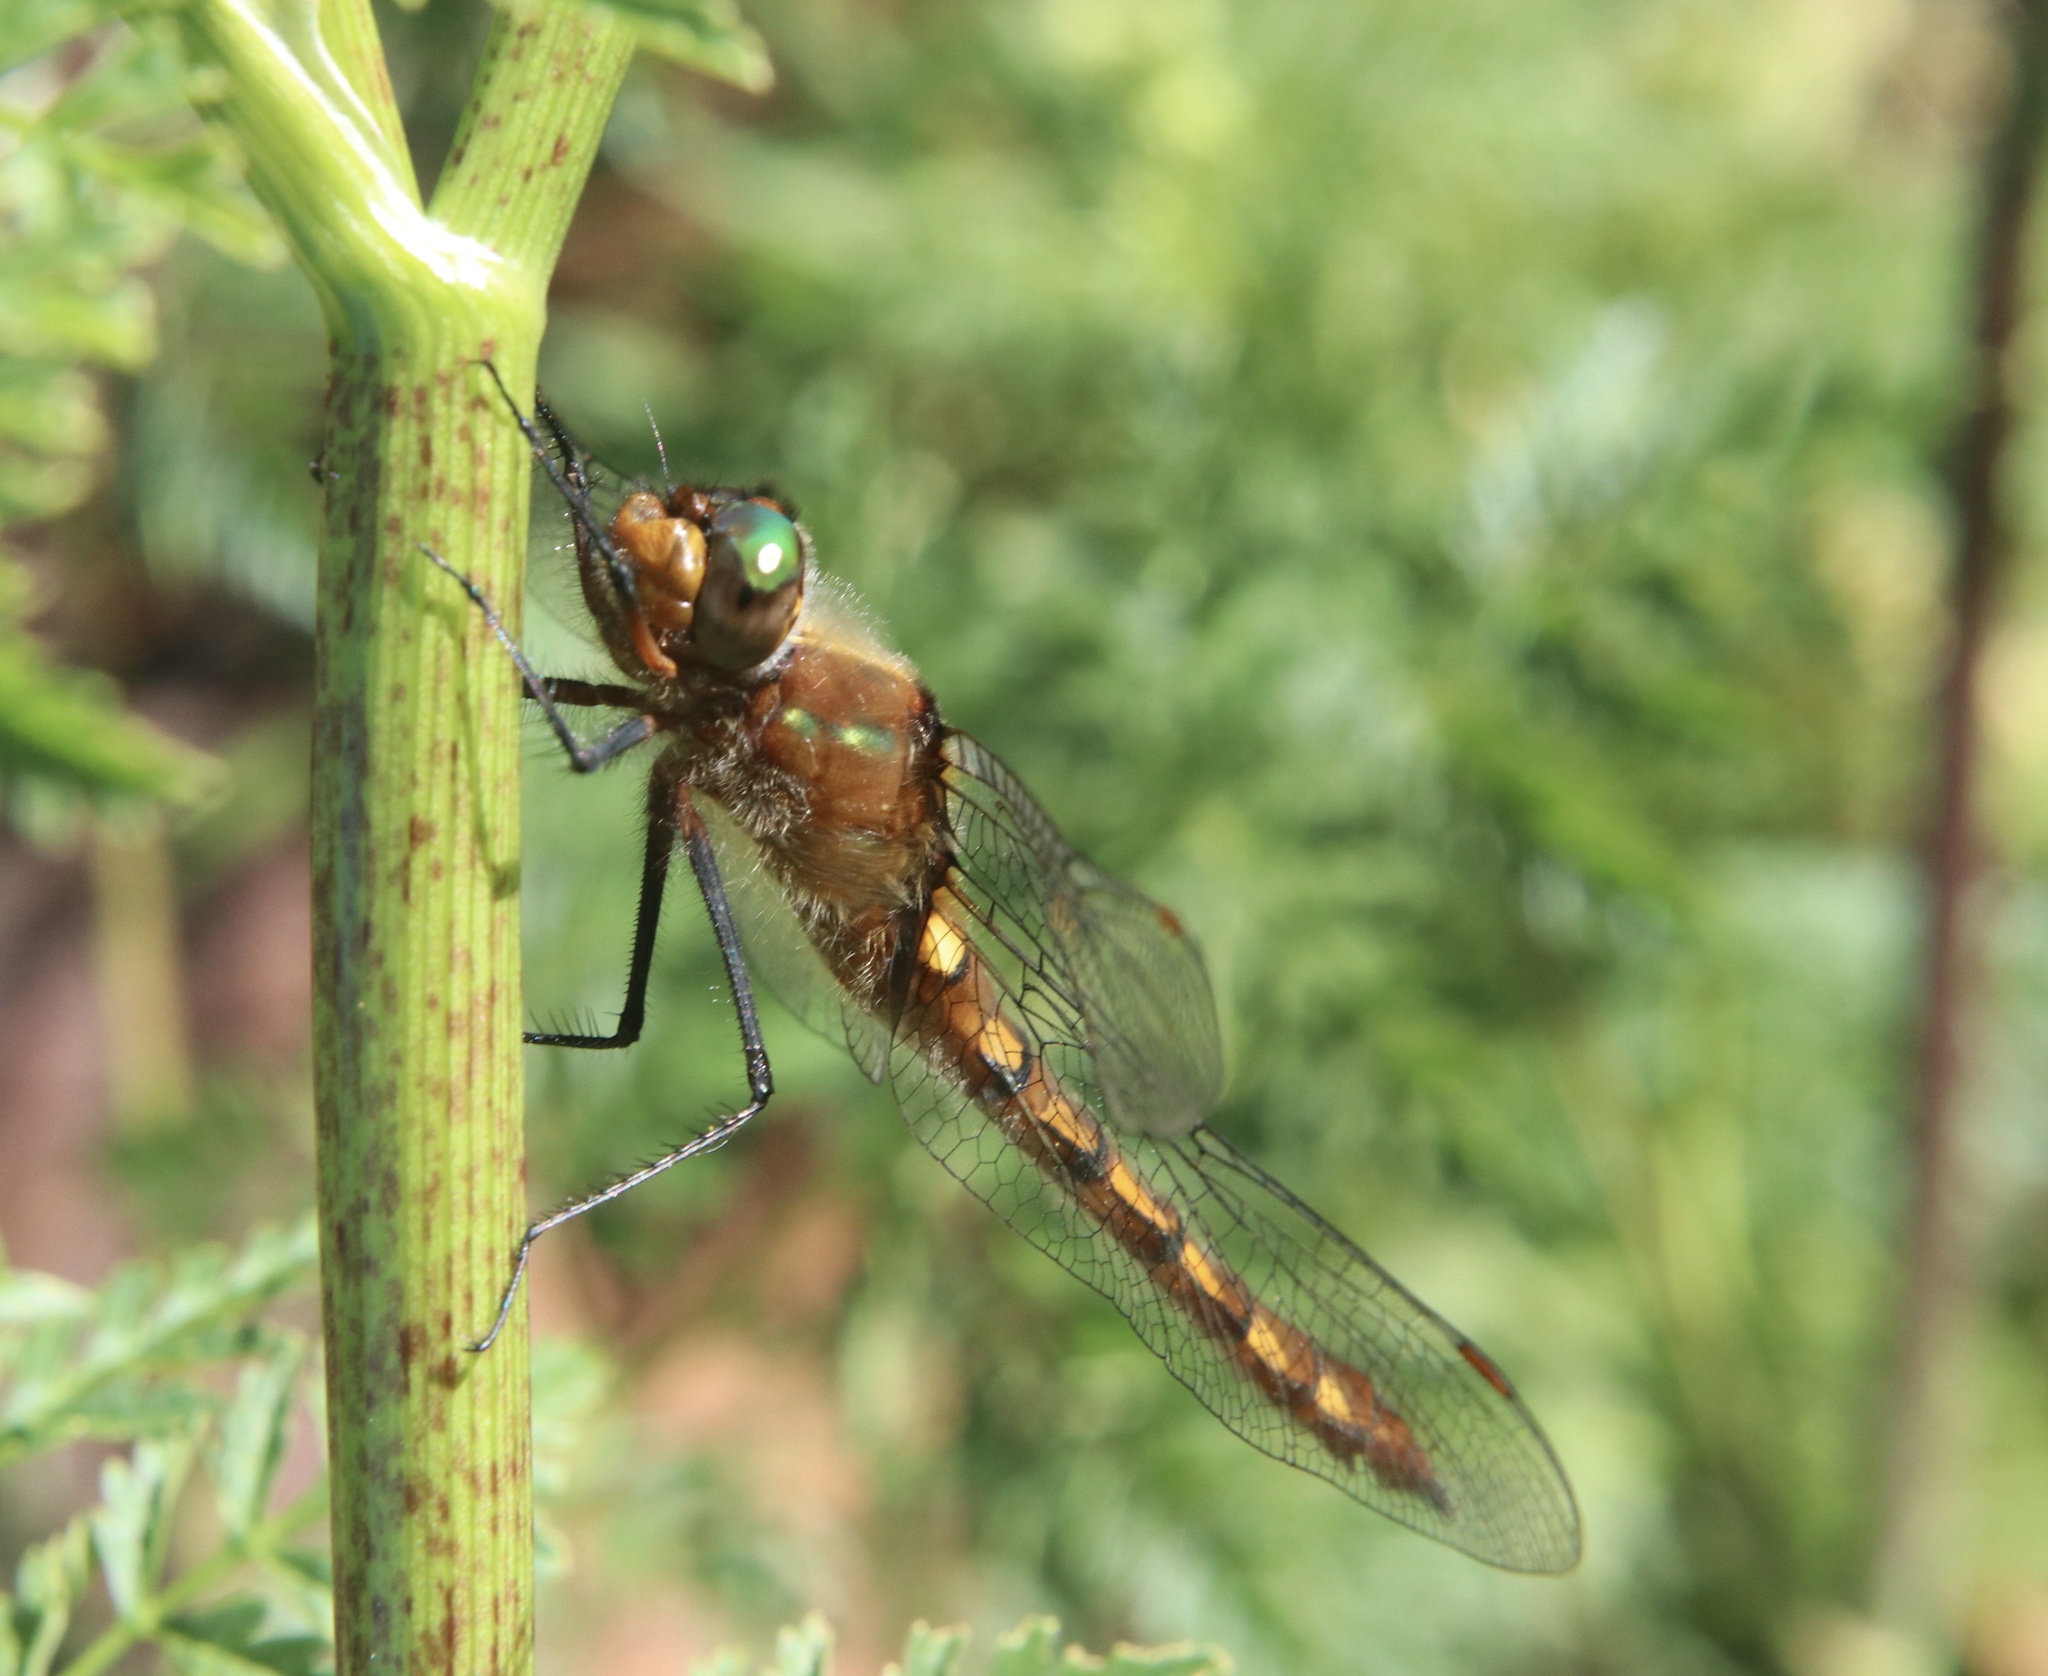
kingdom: Animalia
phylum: Arthropoda
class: Insecta
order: Odonata
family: Corduliidae
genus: Rialla
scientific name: Rialla villosa
